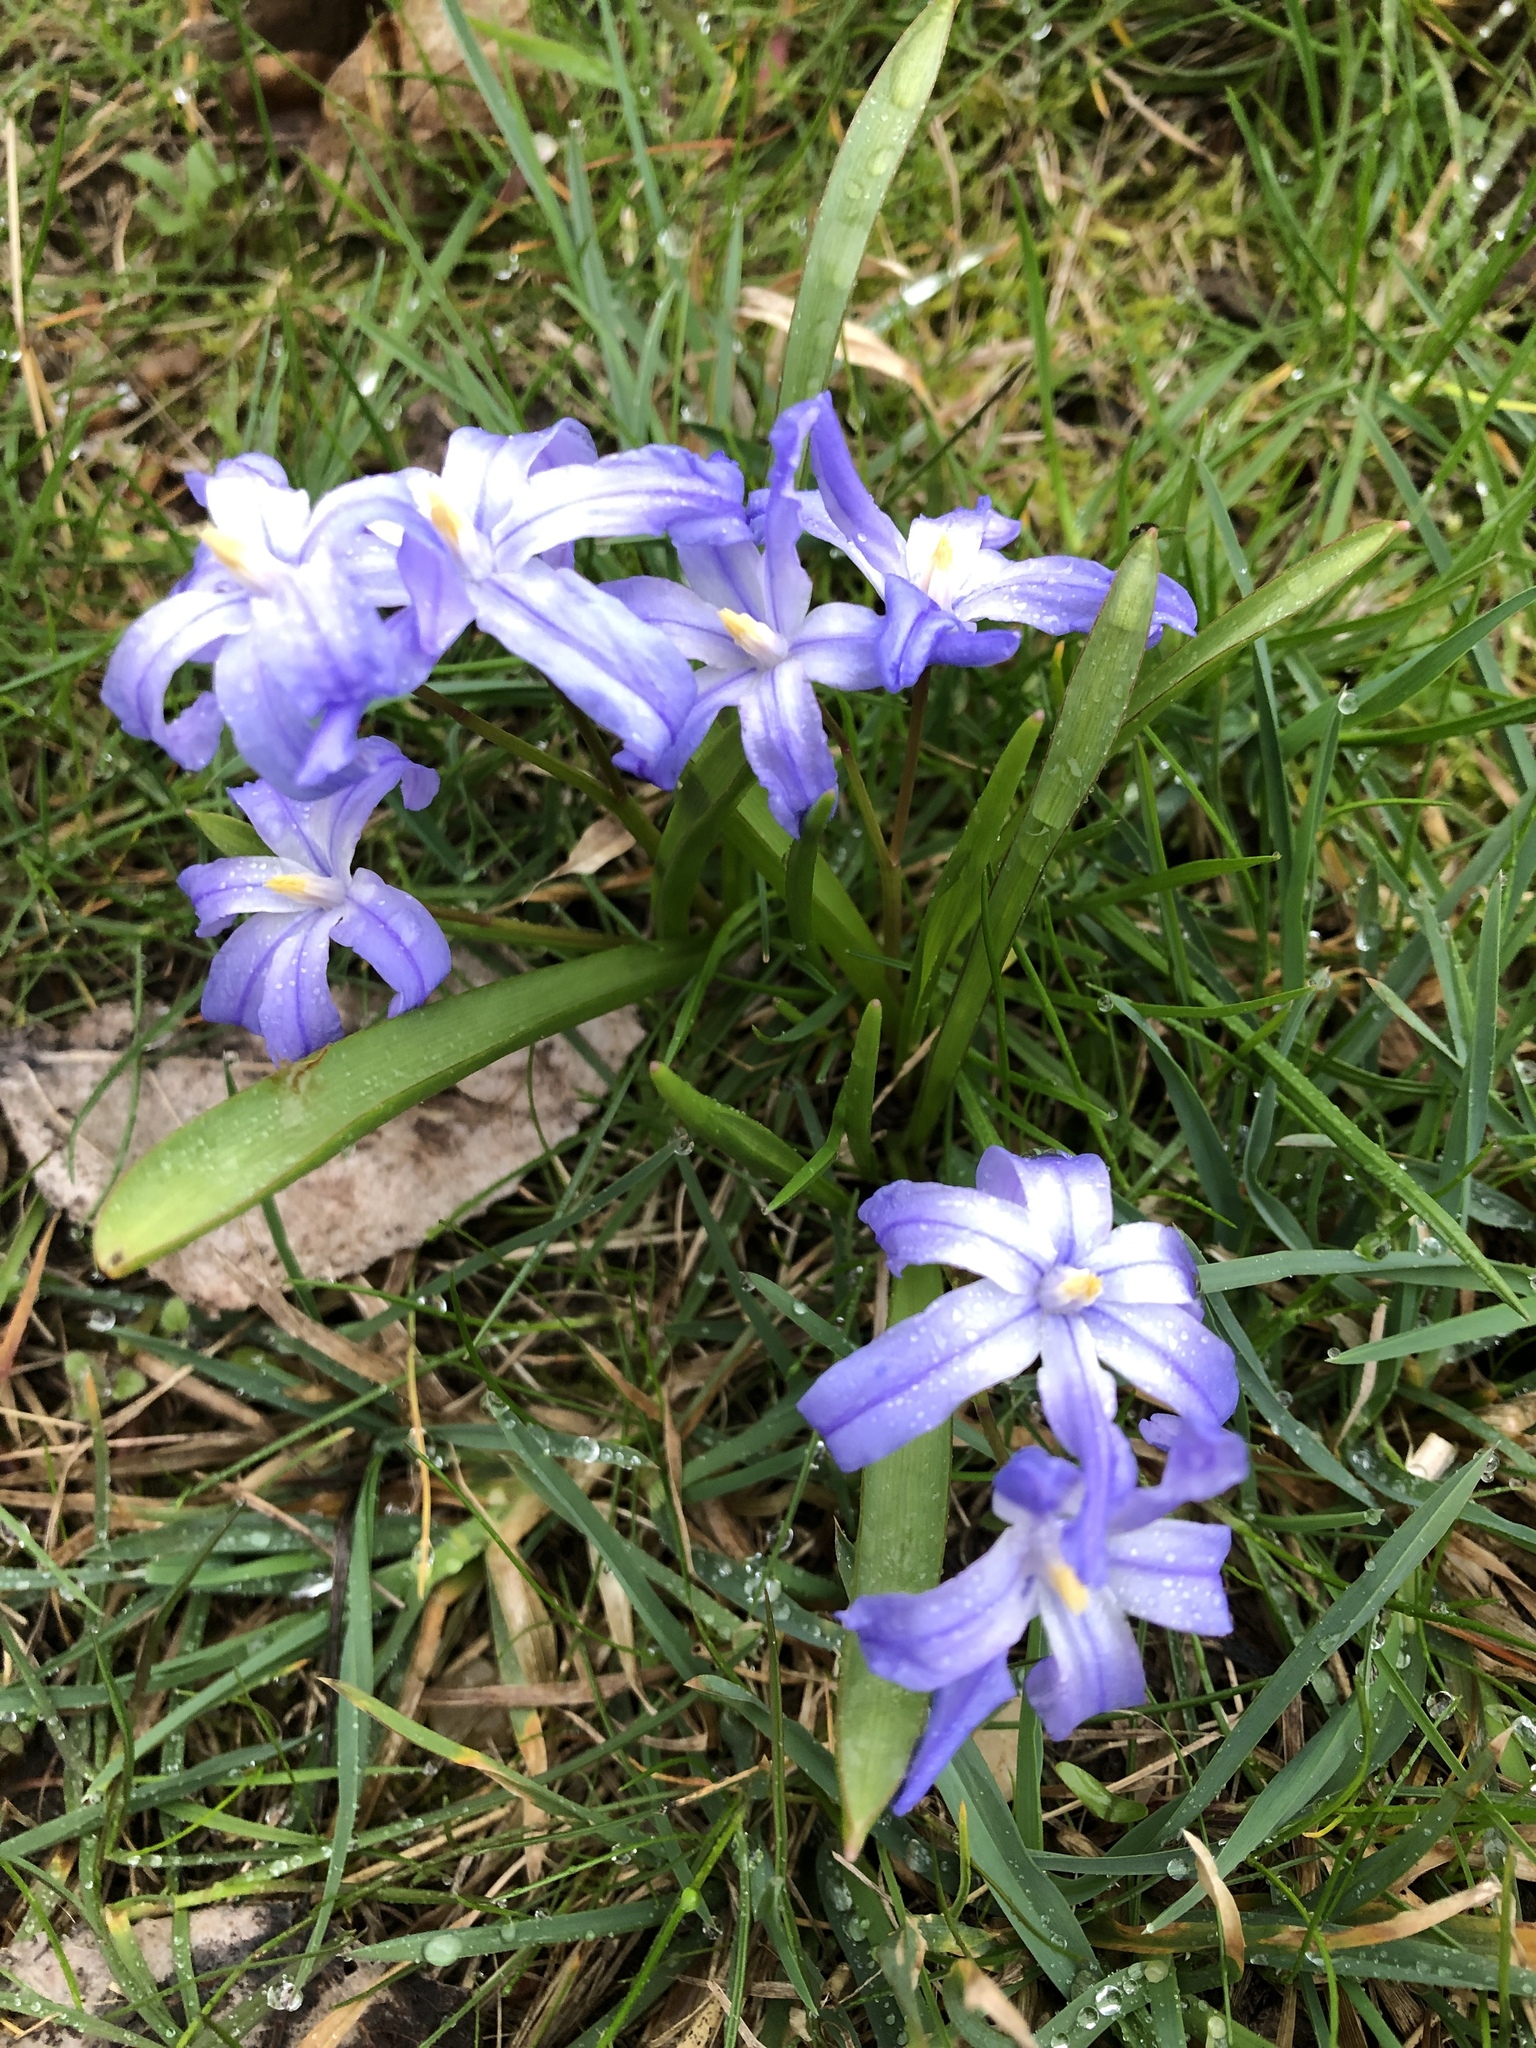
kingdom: Plantae
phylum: Tracheophyta
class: Liliopsida
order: Asparagales
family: Asparagaceae
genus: Scilla
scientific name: Scilla luciliae
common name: Boissier's glory-of-the-snow
